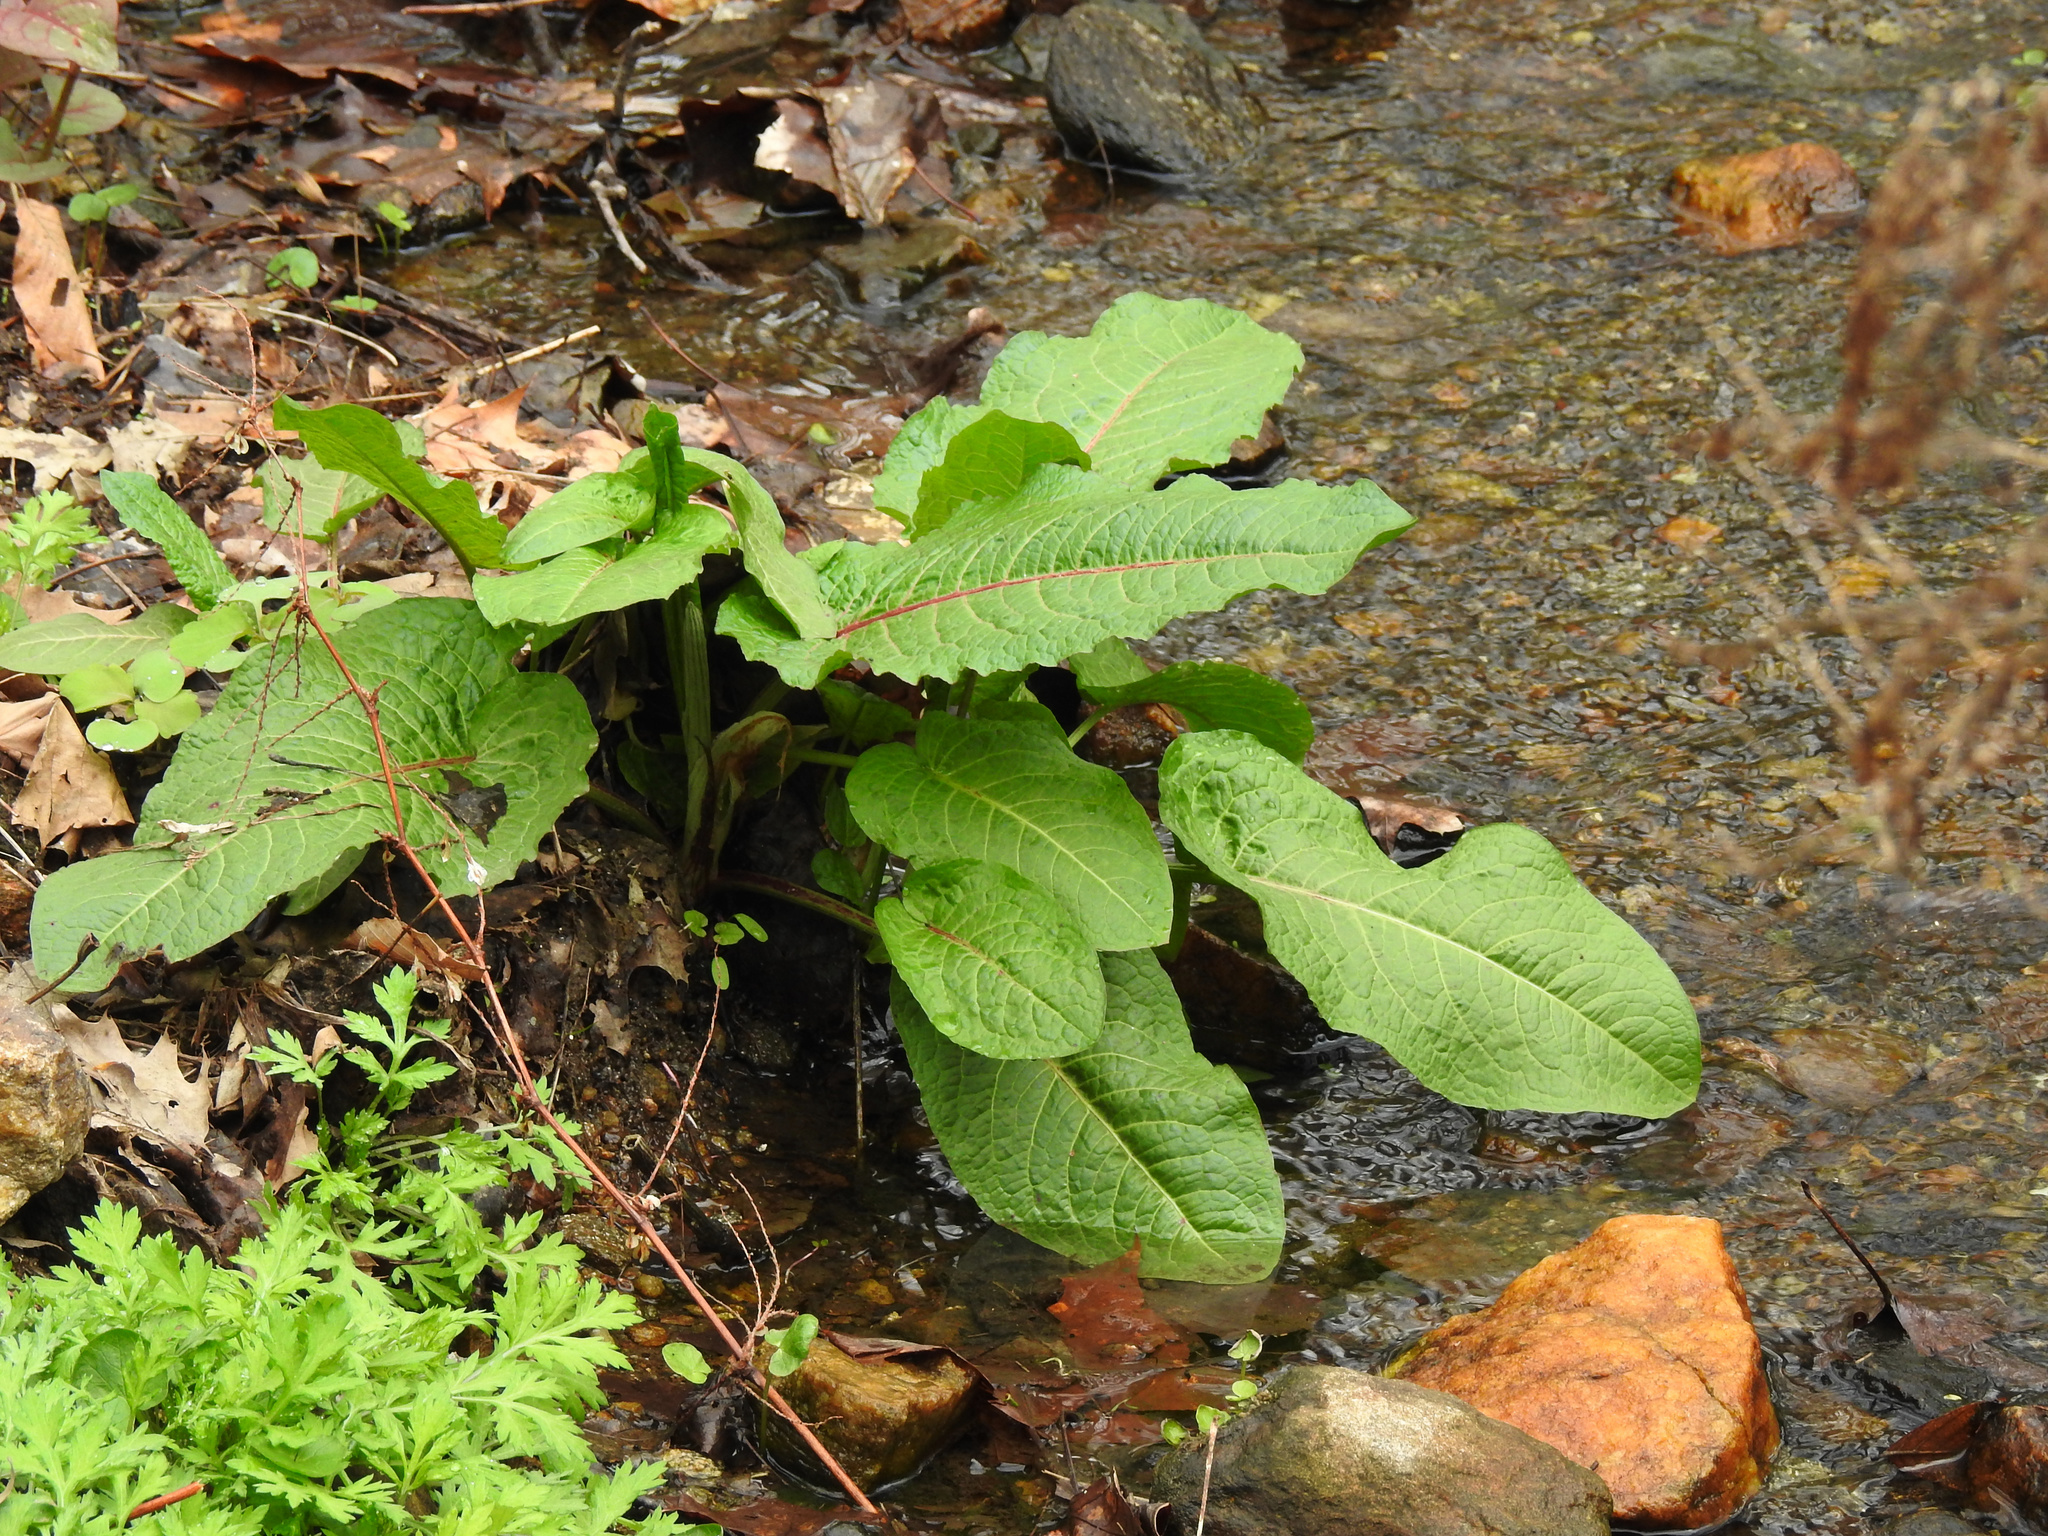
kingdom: Plantae
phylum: Tracheophyta
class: Magnoliopsida
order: Caryophyllales
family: Polygonaceae
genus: Rumex
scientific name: Rumex obtusifolius
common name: Bitter dock
